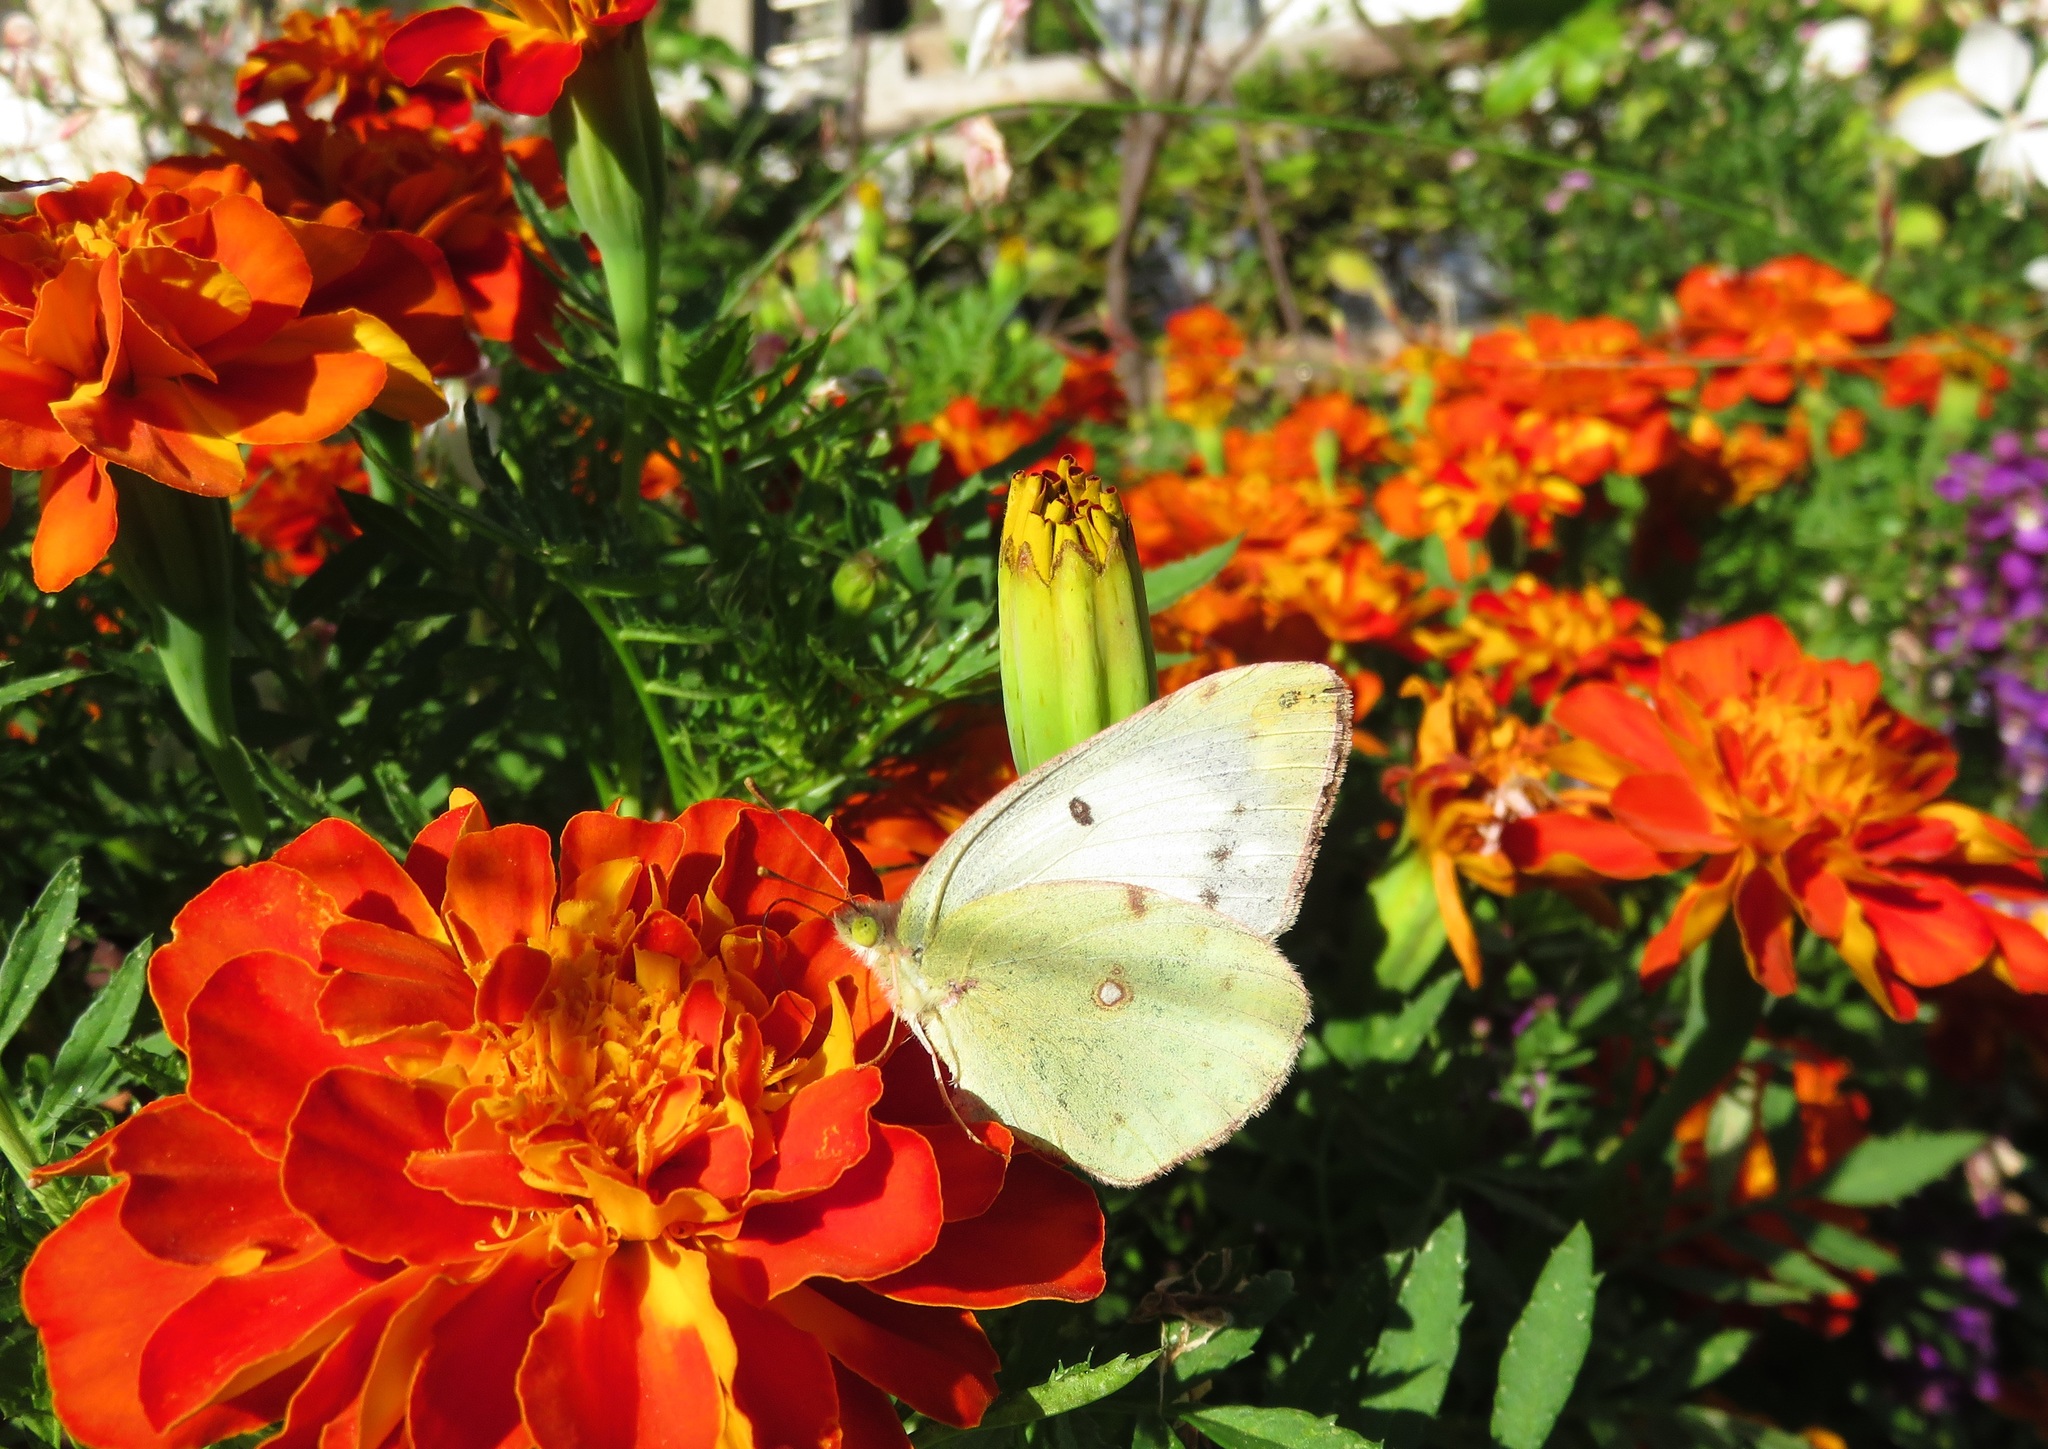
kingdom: Animalia
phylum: Arthropoda
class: Insecta
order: Lepidoptera
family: Pieridae
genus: Colias
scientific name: Colias poliographus
